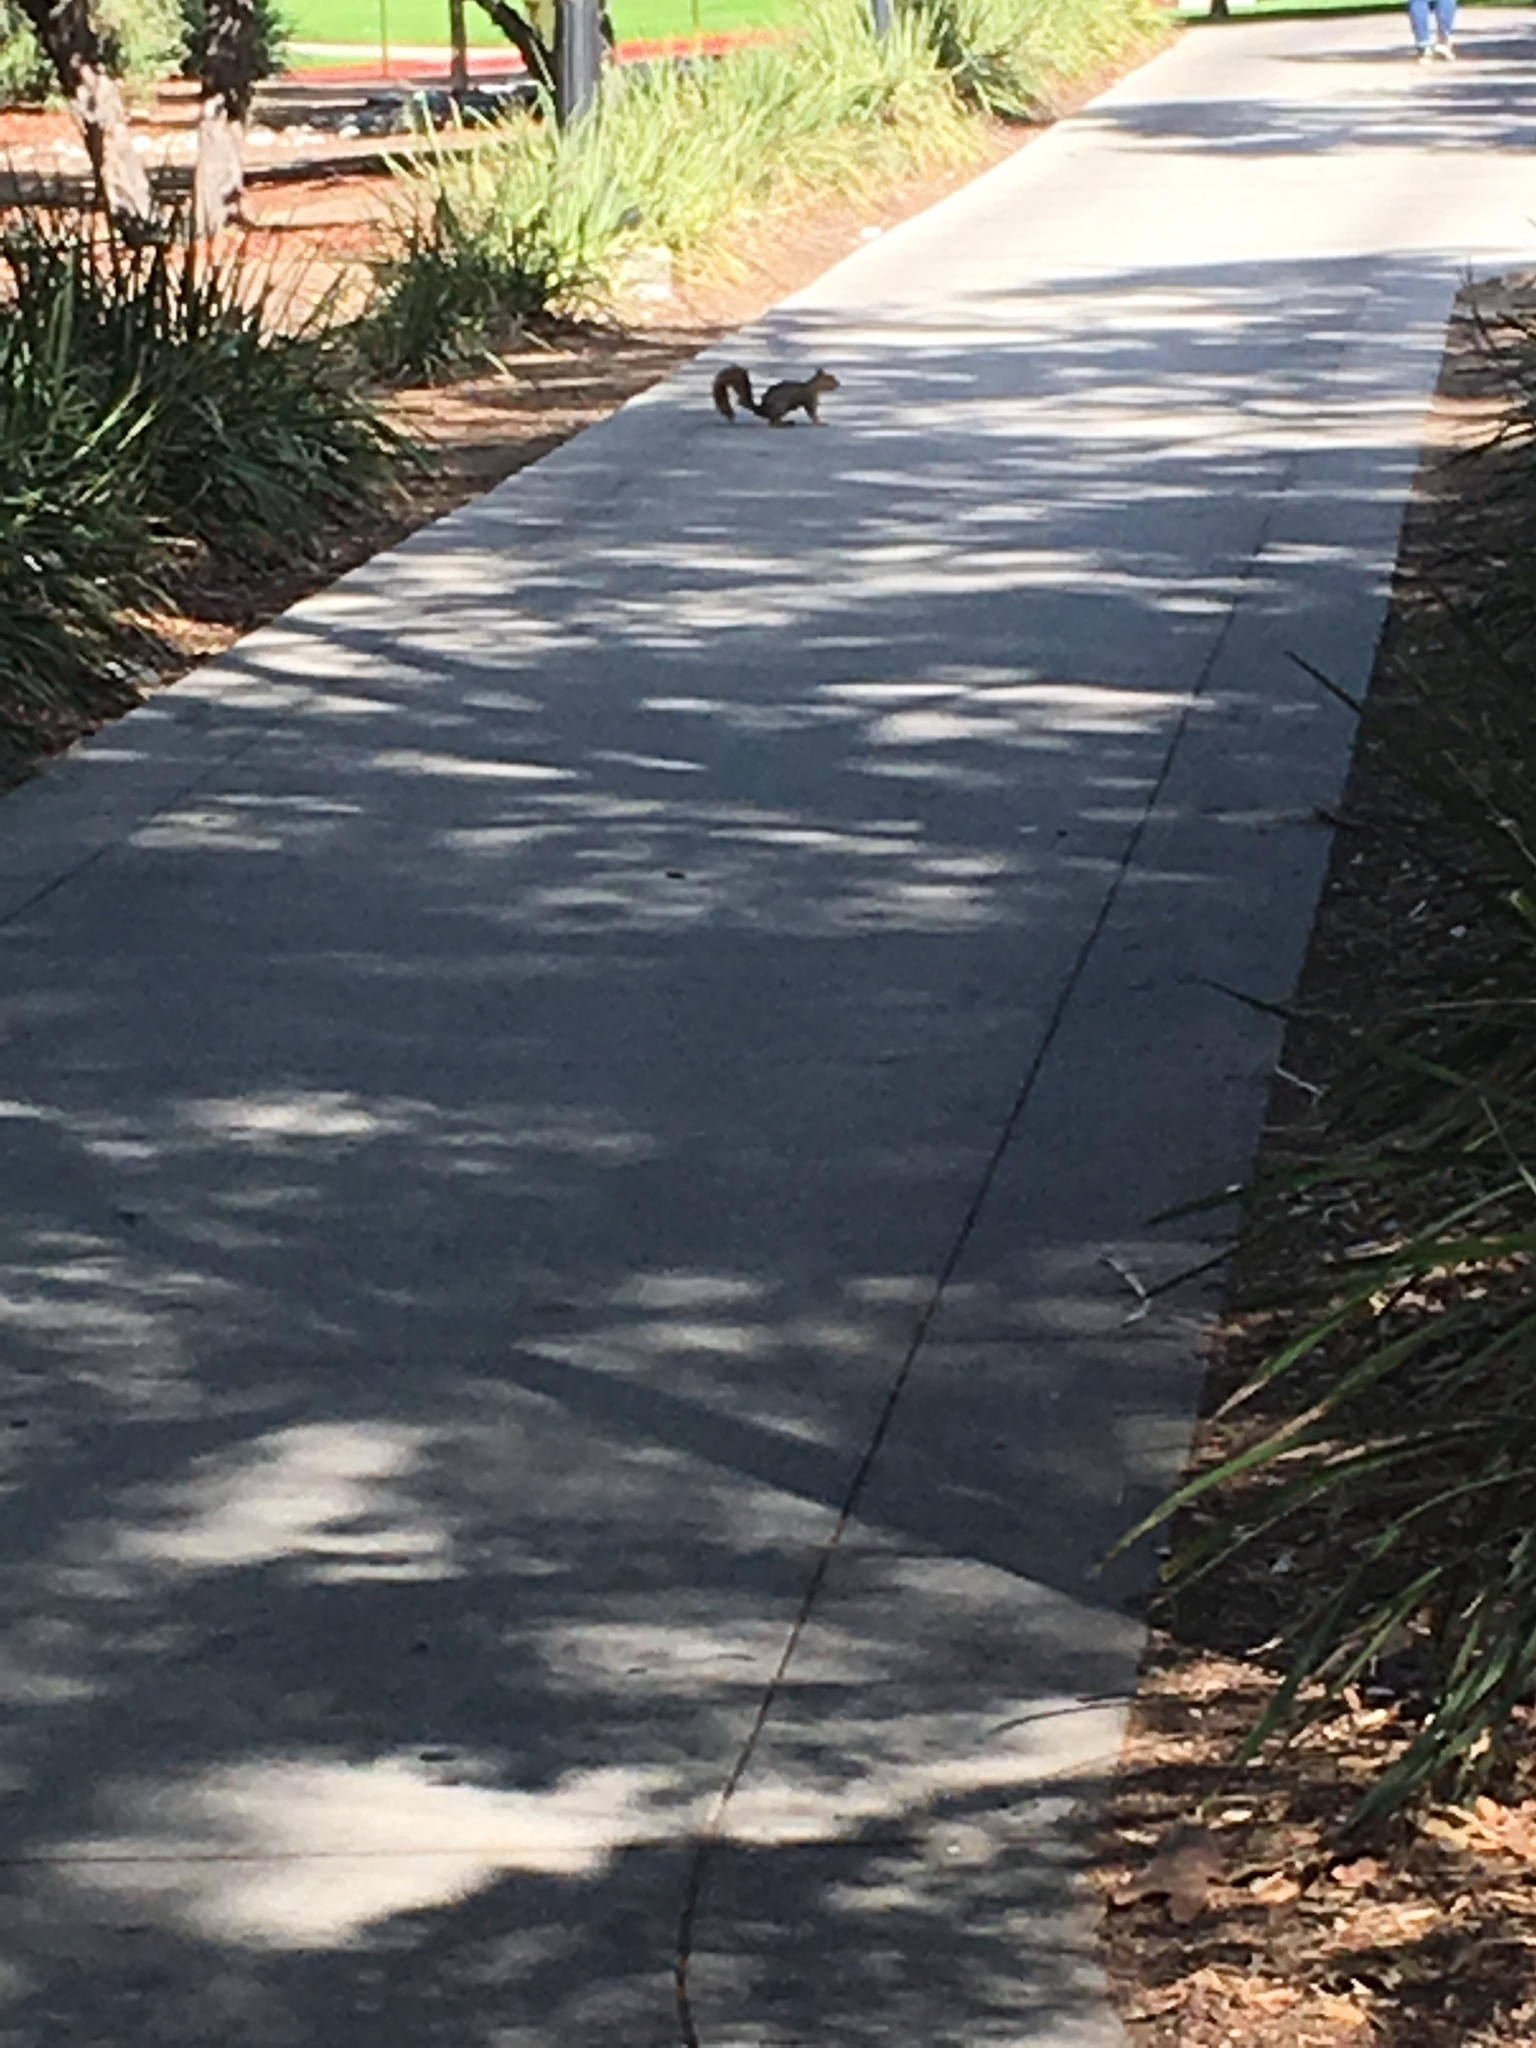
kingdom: Animalia
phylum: Chordata
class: Mammalia
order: Rodentia
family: Sciuridae
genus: Sciurus
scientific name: Sciurus niger
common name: Fox squirrel
